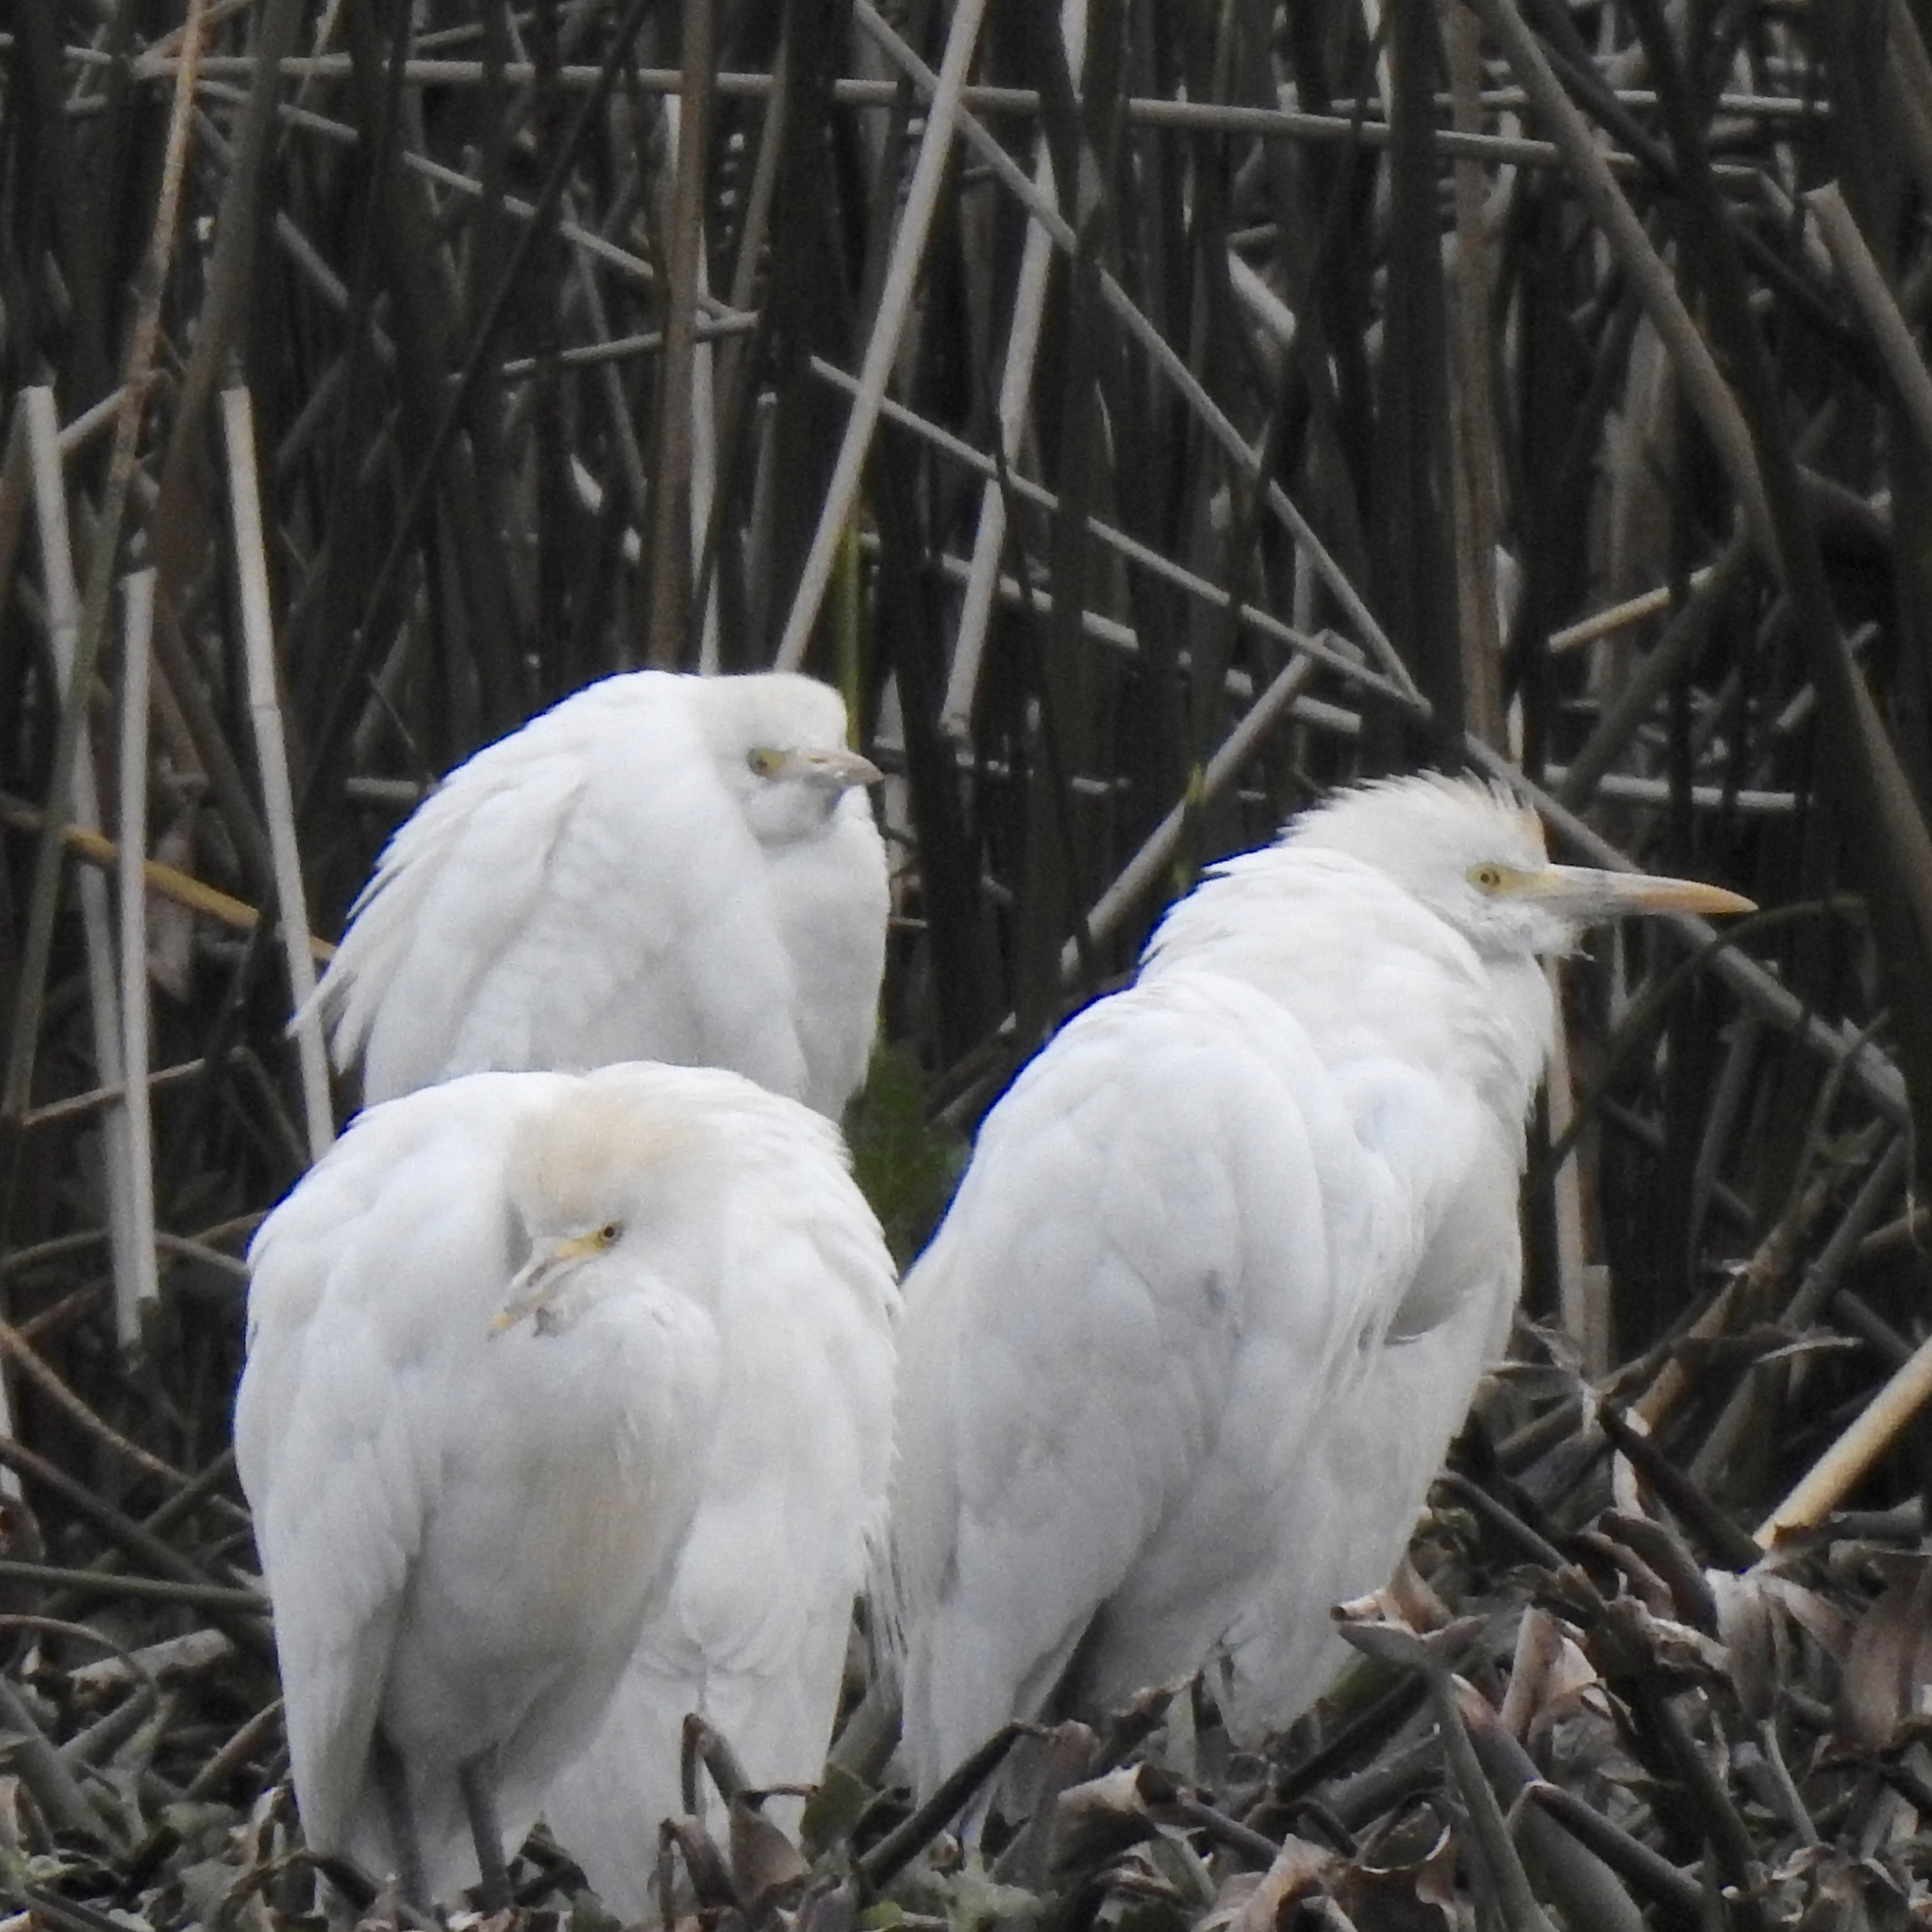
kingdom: Animalia
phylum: Chordata
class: Aves
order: Pelecaniformes
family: Ardeidae
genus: Bubulcus
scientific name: Bubulcus ibis
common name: Cattle egret
